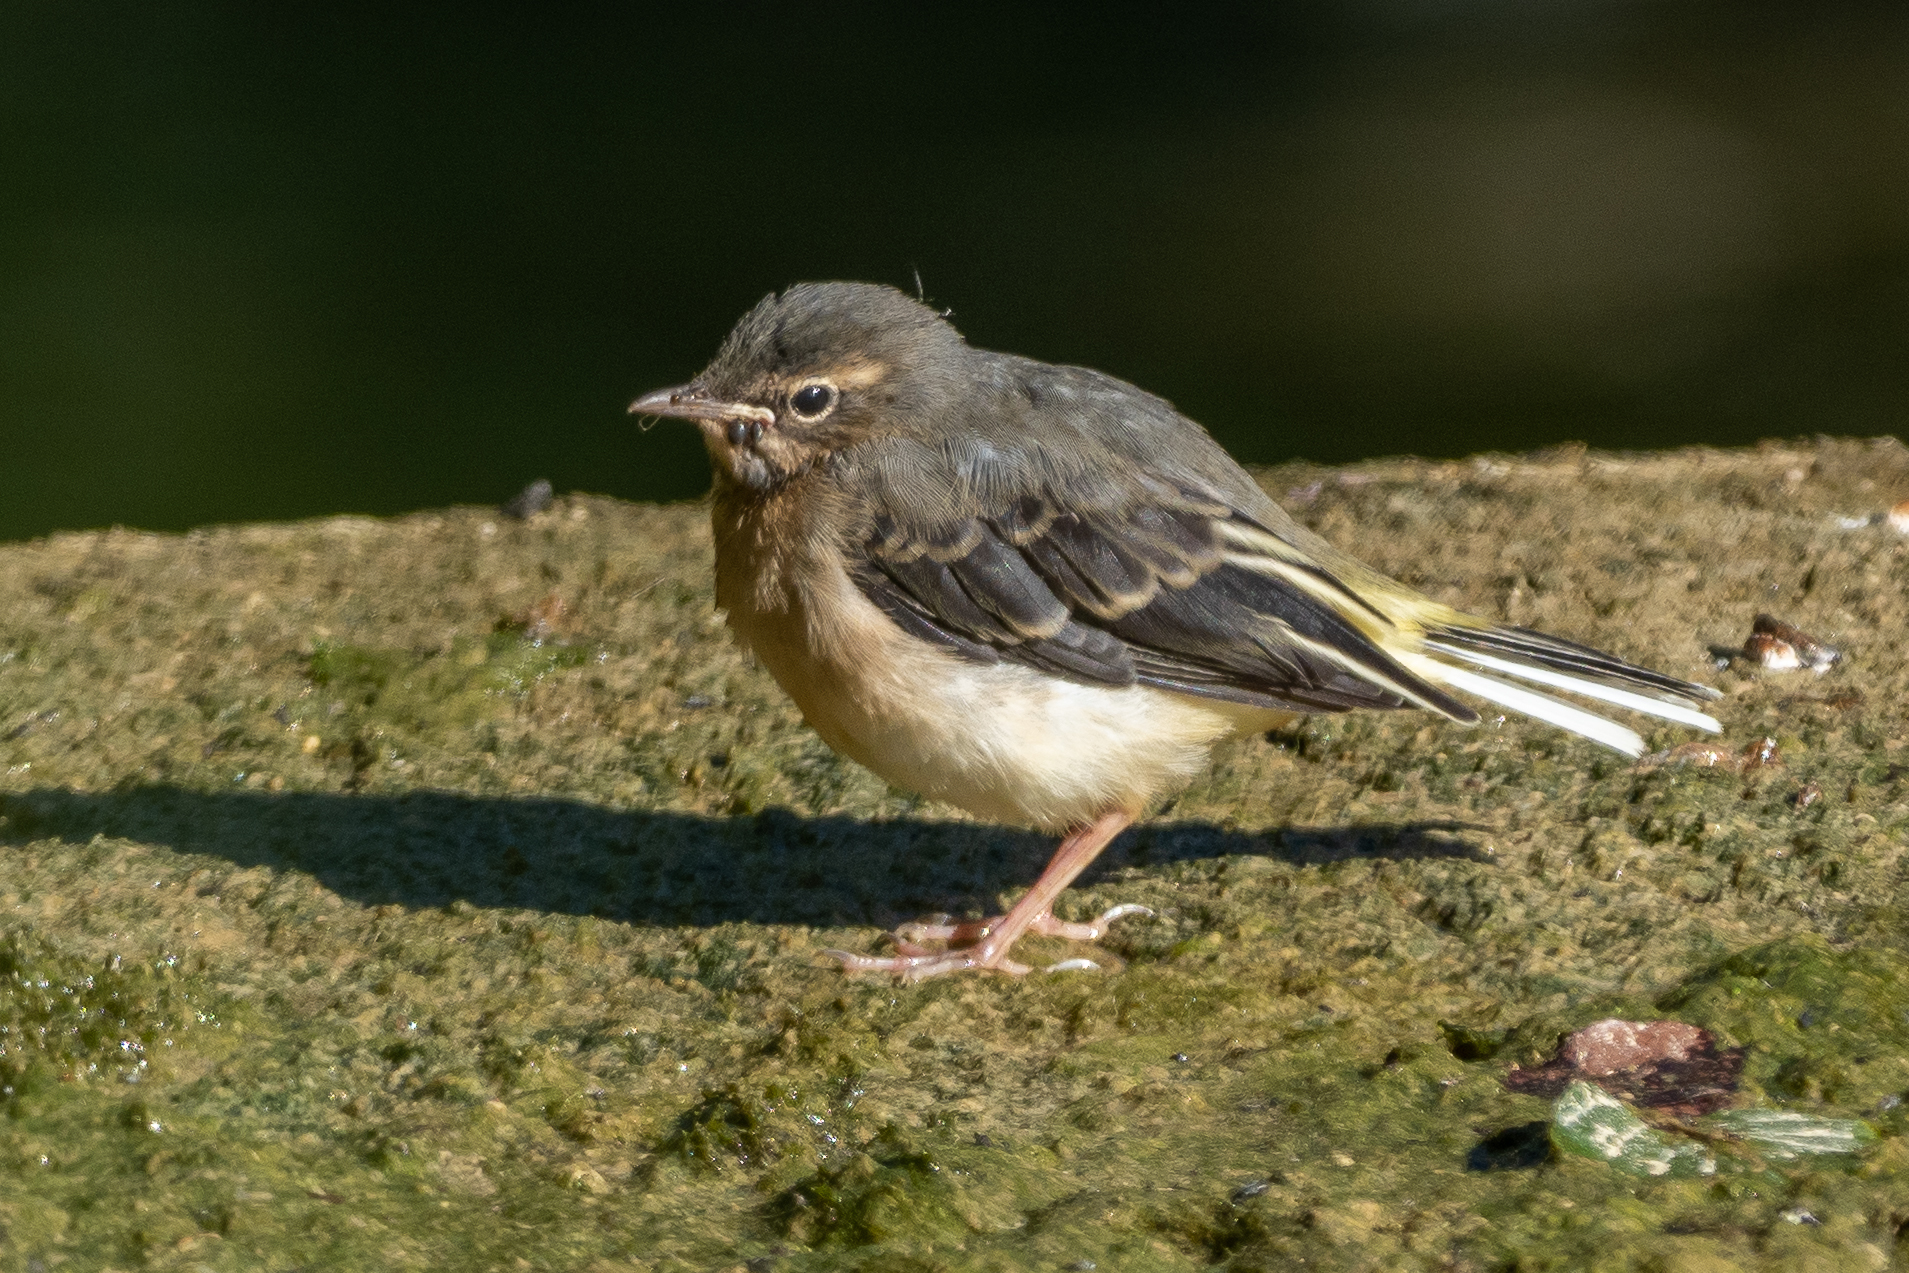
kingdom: Animalia
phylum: Chordata
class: Aves
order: Passeriformes
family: Motacillidae
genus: Motacilla
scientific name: Motacilla cinerea
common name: Grey wagtail
